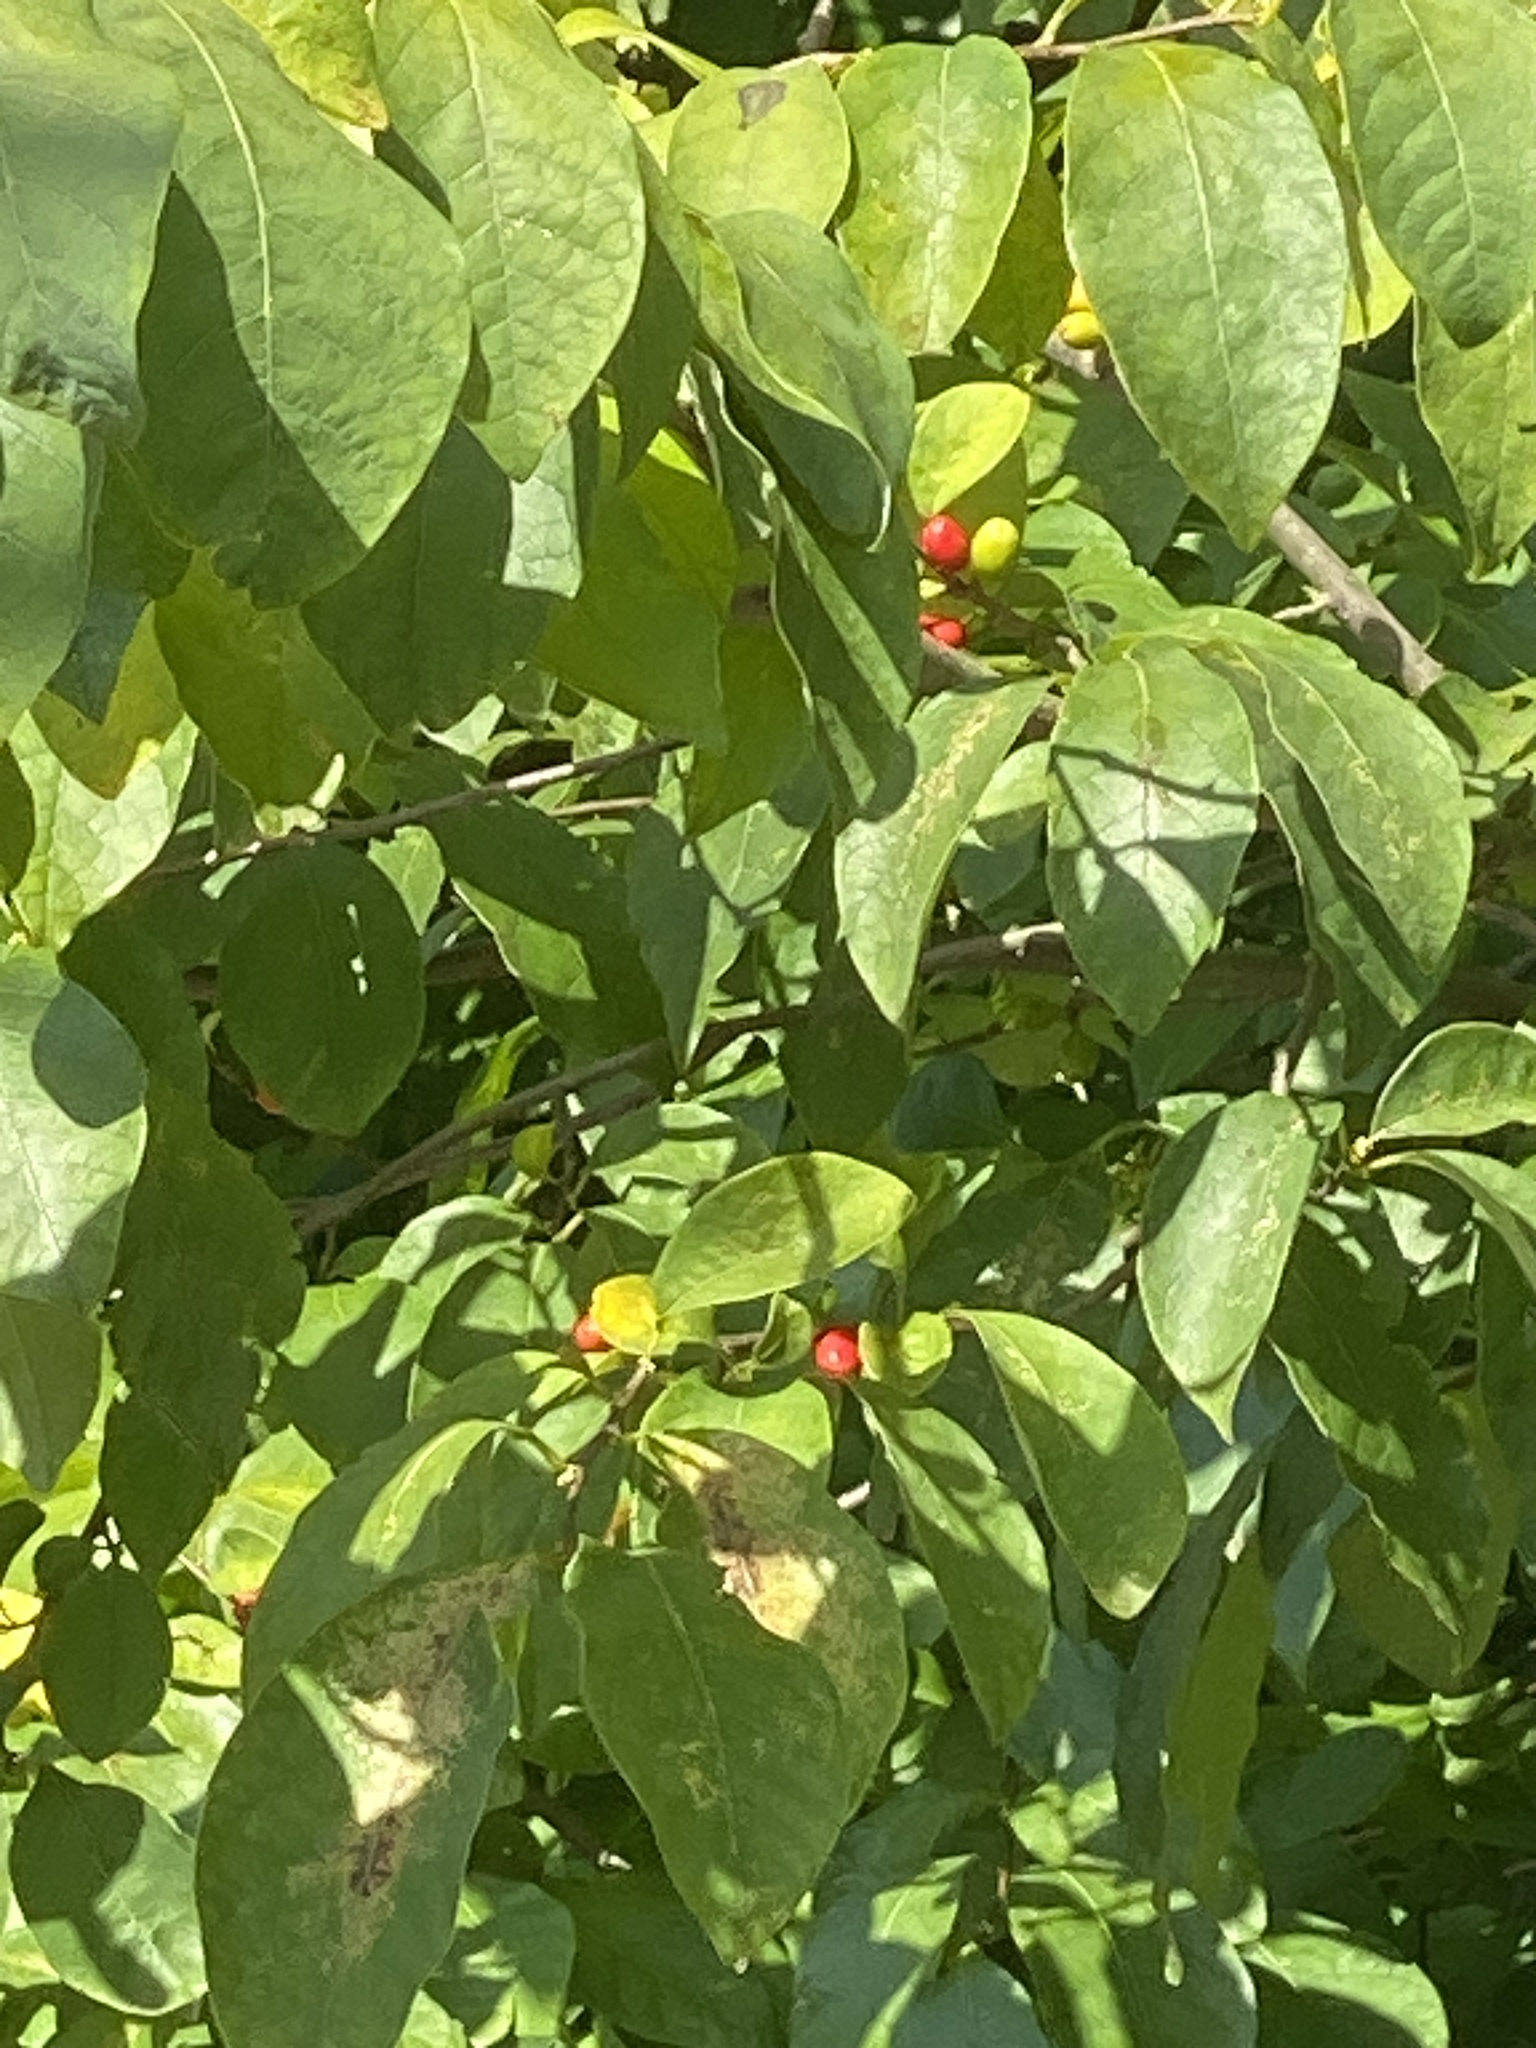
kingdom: Plantae
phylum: Tracheophyta
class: Magnoliopsida
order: Laurales
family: Lauraceae
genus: Lindera
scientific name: Lindera benzoin
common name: Spicebush
